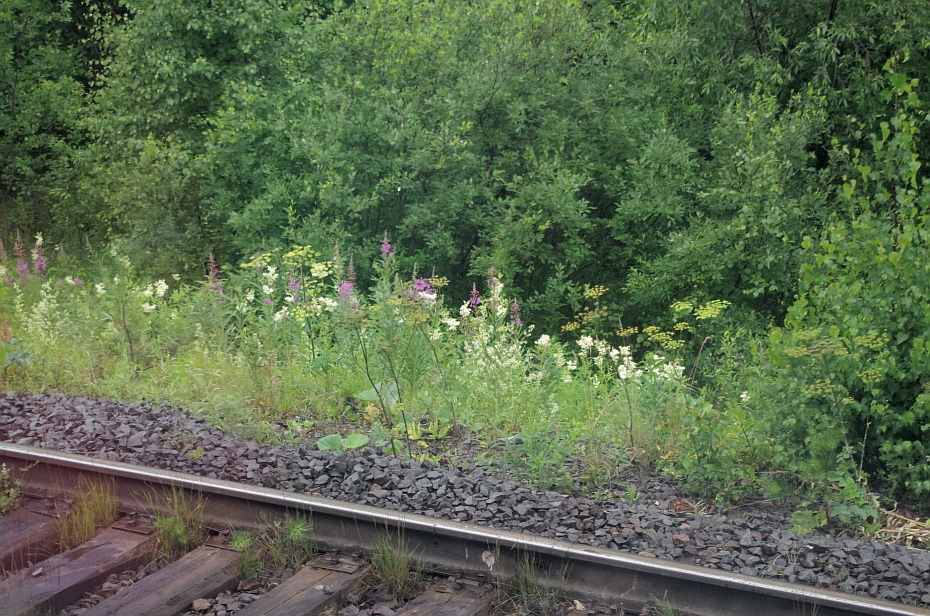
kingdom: Plantae
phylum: Tracheophyta
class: Magnoliopsida
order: Asterales
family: Asteraceae
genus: Tussilago
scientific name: Tussilago farfara
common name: Coltsfoot
